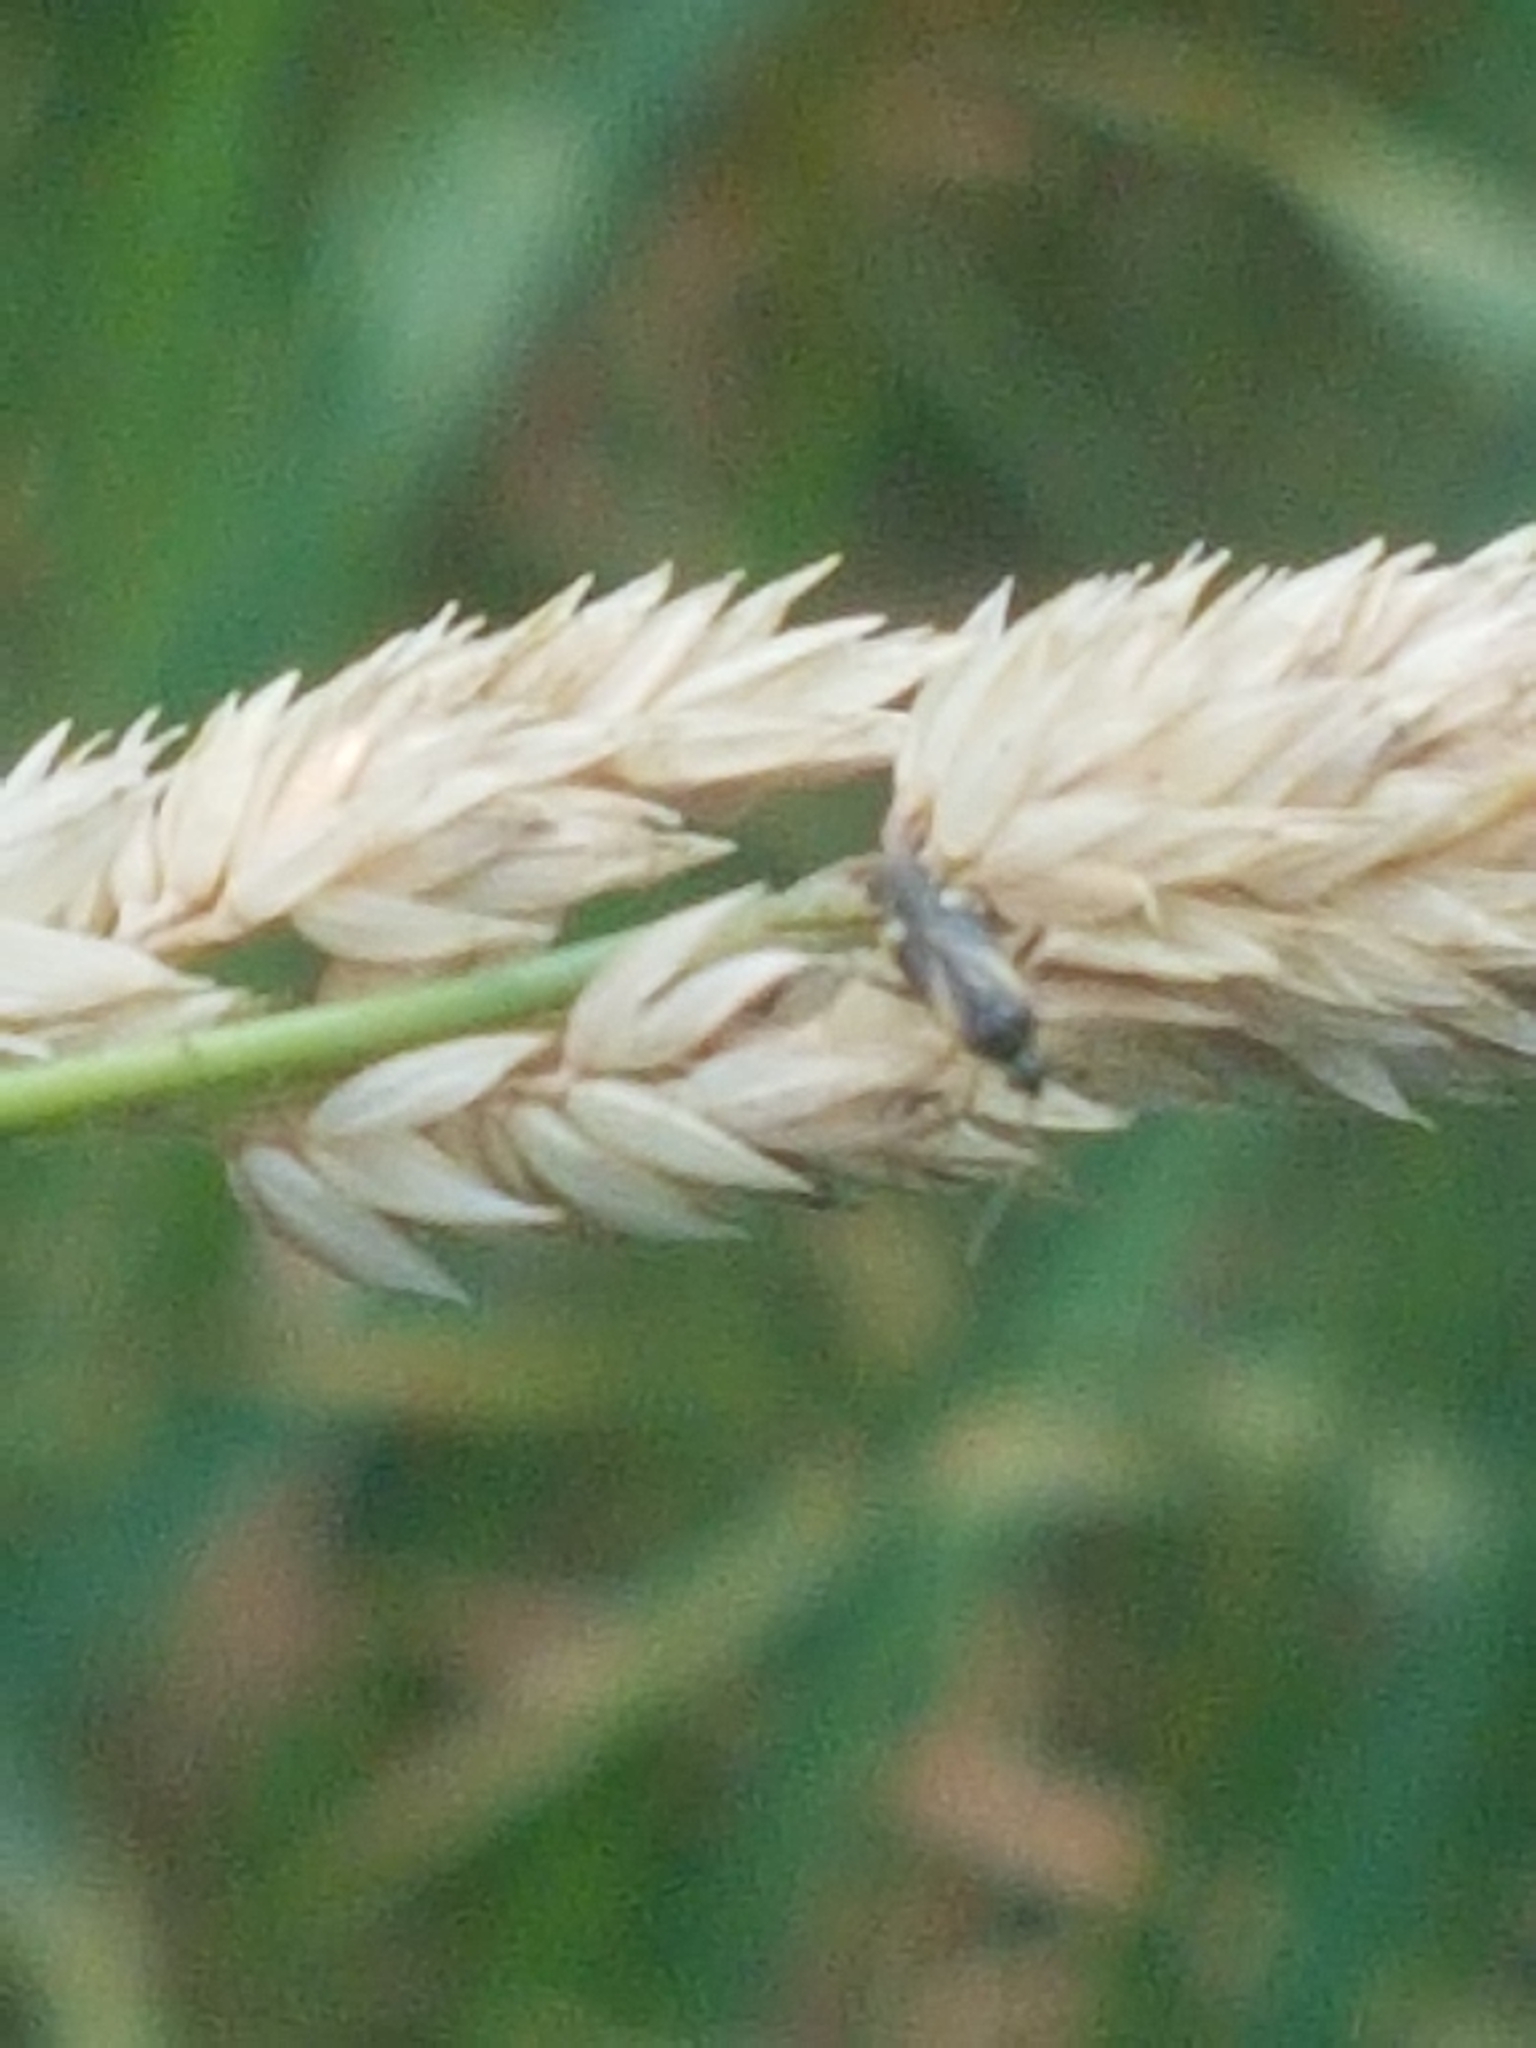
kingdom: Animalia
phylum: Arthropoda
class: Insecta
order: Hemiptera
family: Miridae
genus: Plagiognathus
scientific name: Plagiognathus obscurus
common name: Obscure plant bug
